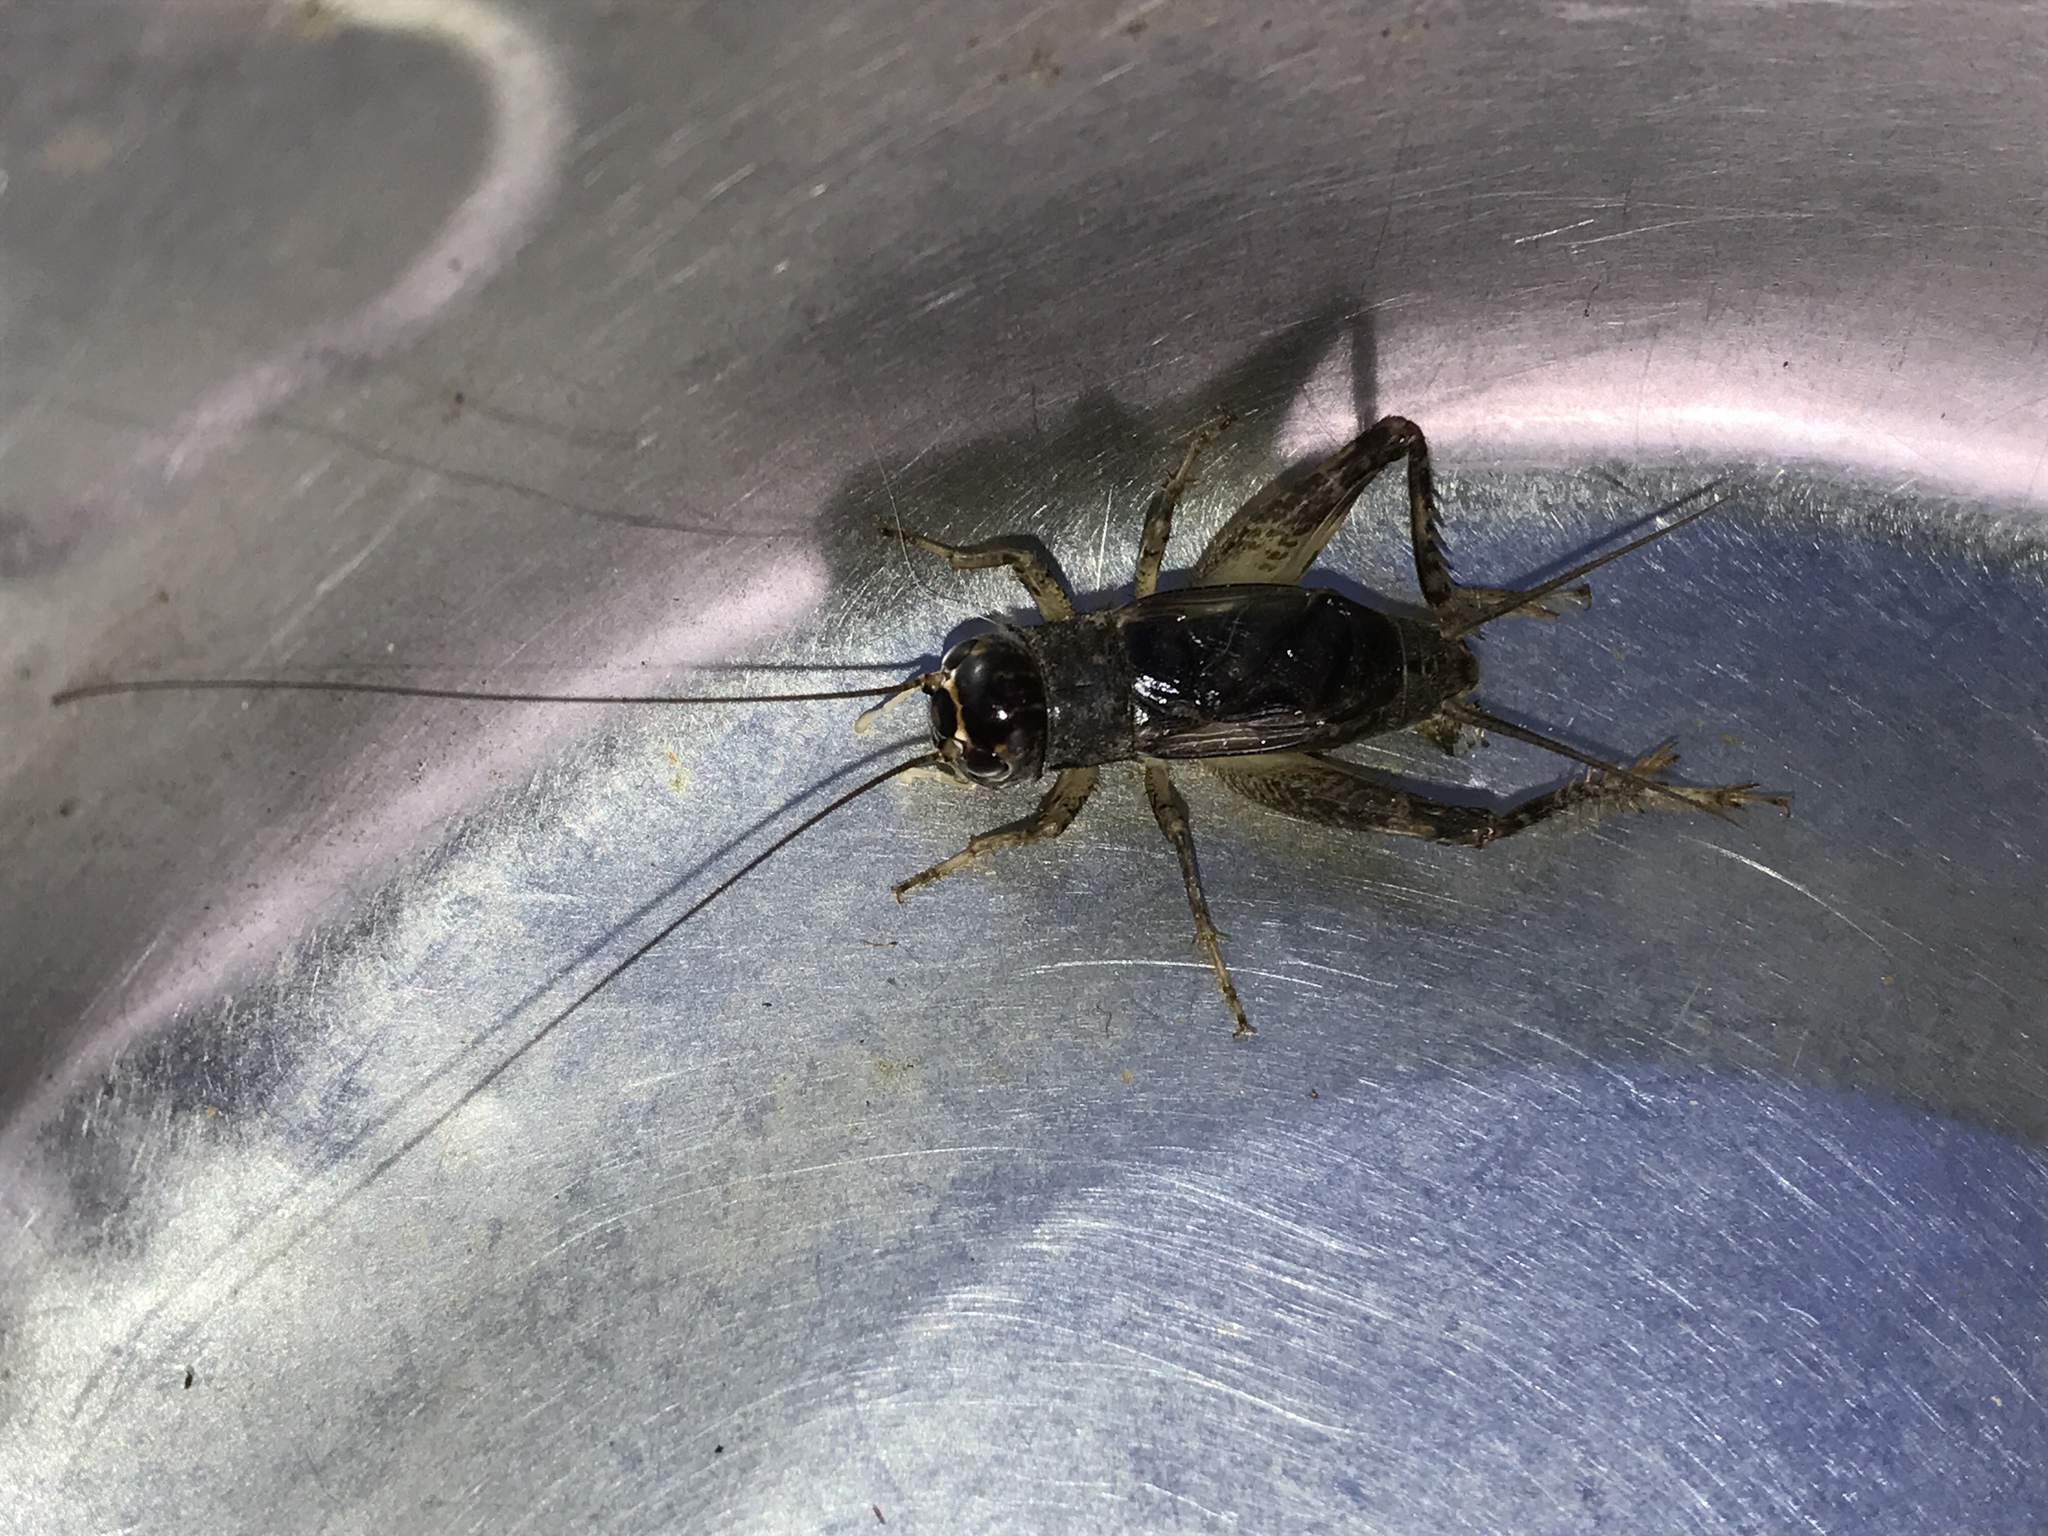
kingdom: Animalia
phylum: Arthropoda
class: Insecta
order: Orthoptera
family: Gryllidae
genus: Velarifictorus
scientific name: Velarifictorus micado
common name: Japanese burrowing cricket
